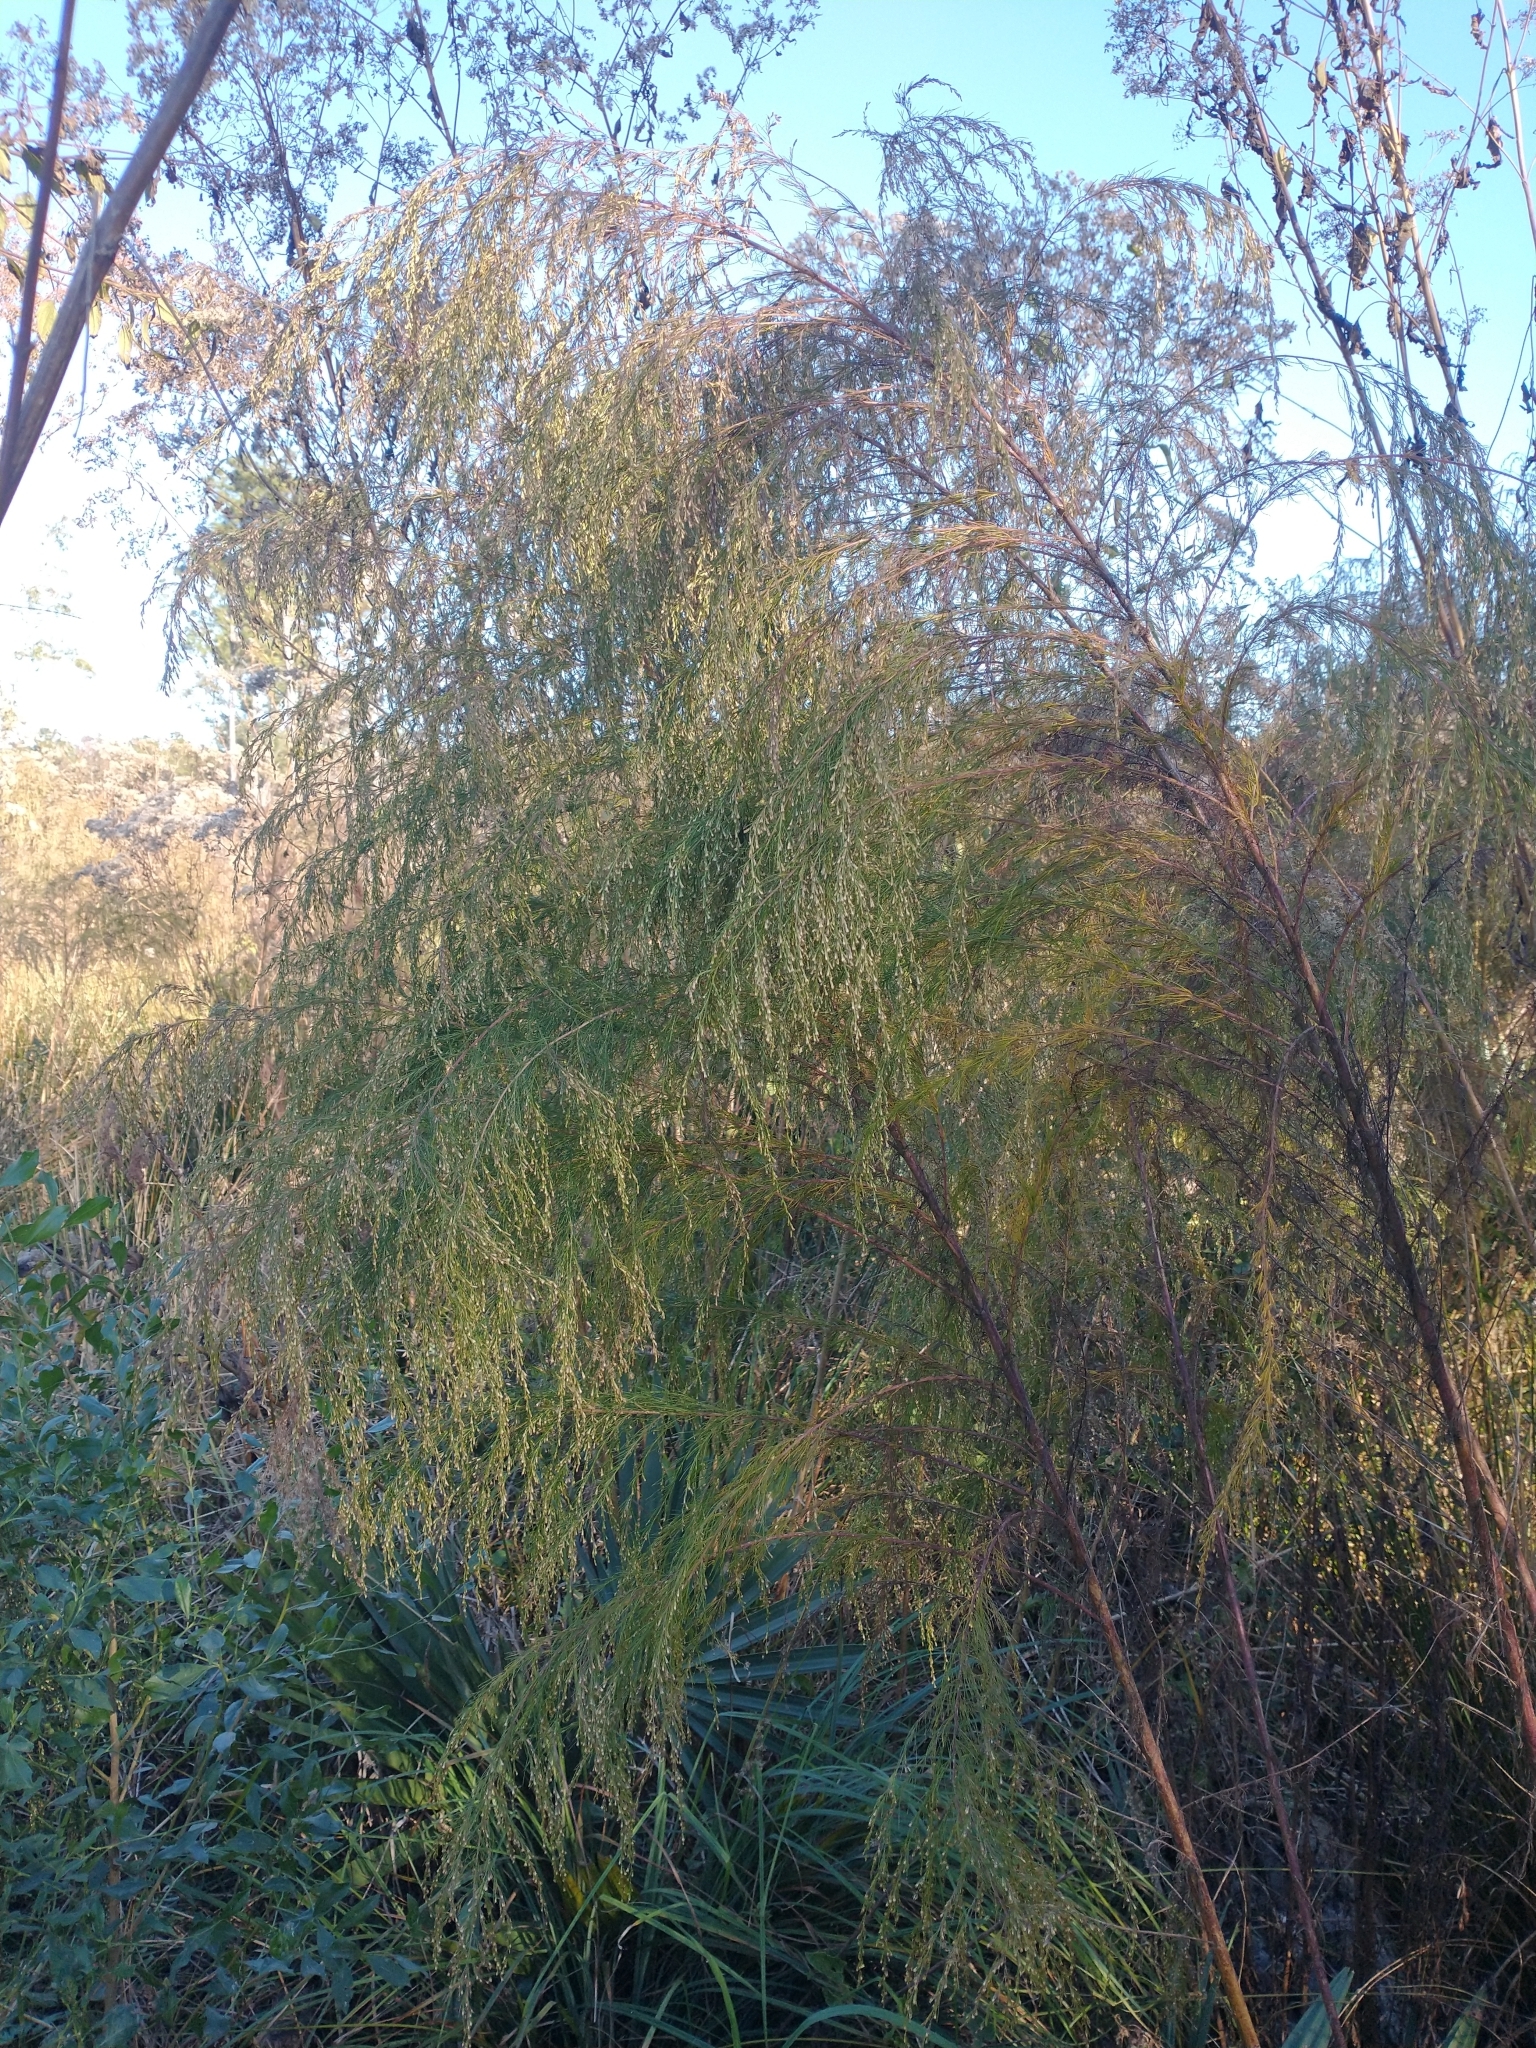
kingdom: Plantae
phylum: Tracheophyta
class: Magnoliopsida
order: Asterales
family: Asteraceae
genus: Eupatorium
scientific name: Eupatorium capillifolium
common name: Dog-fennel
